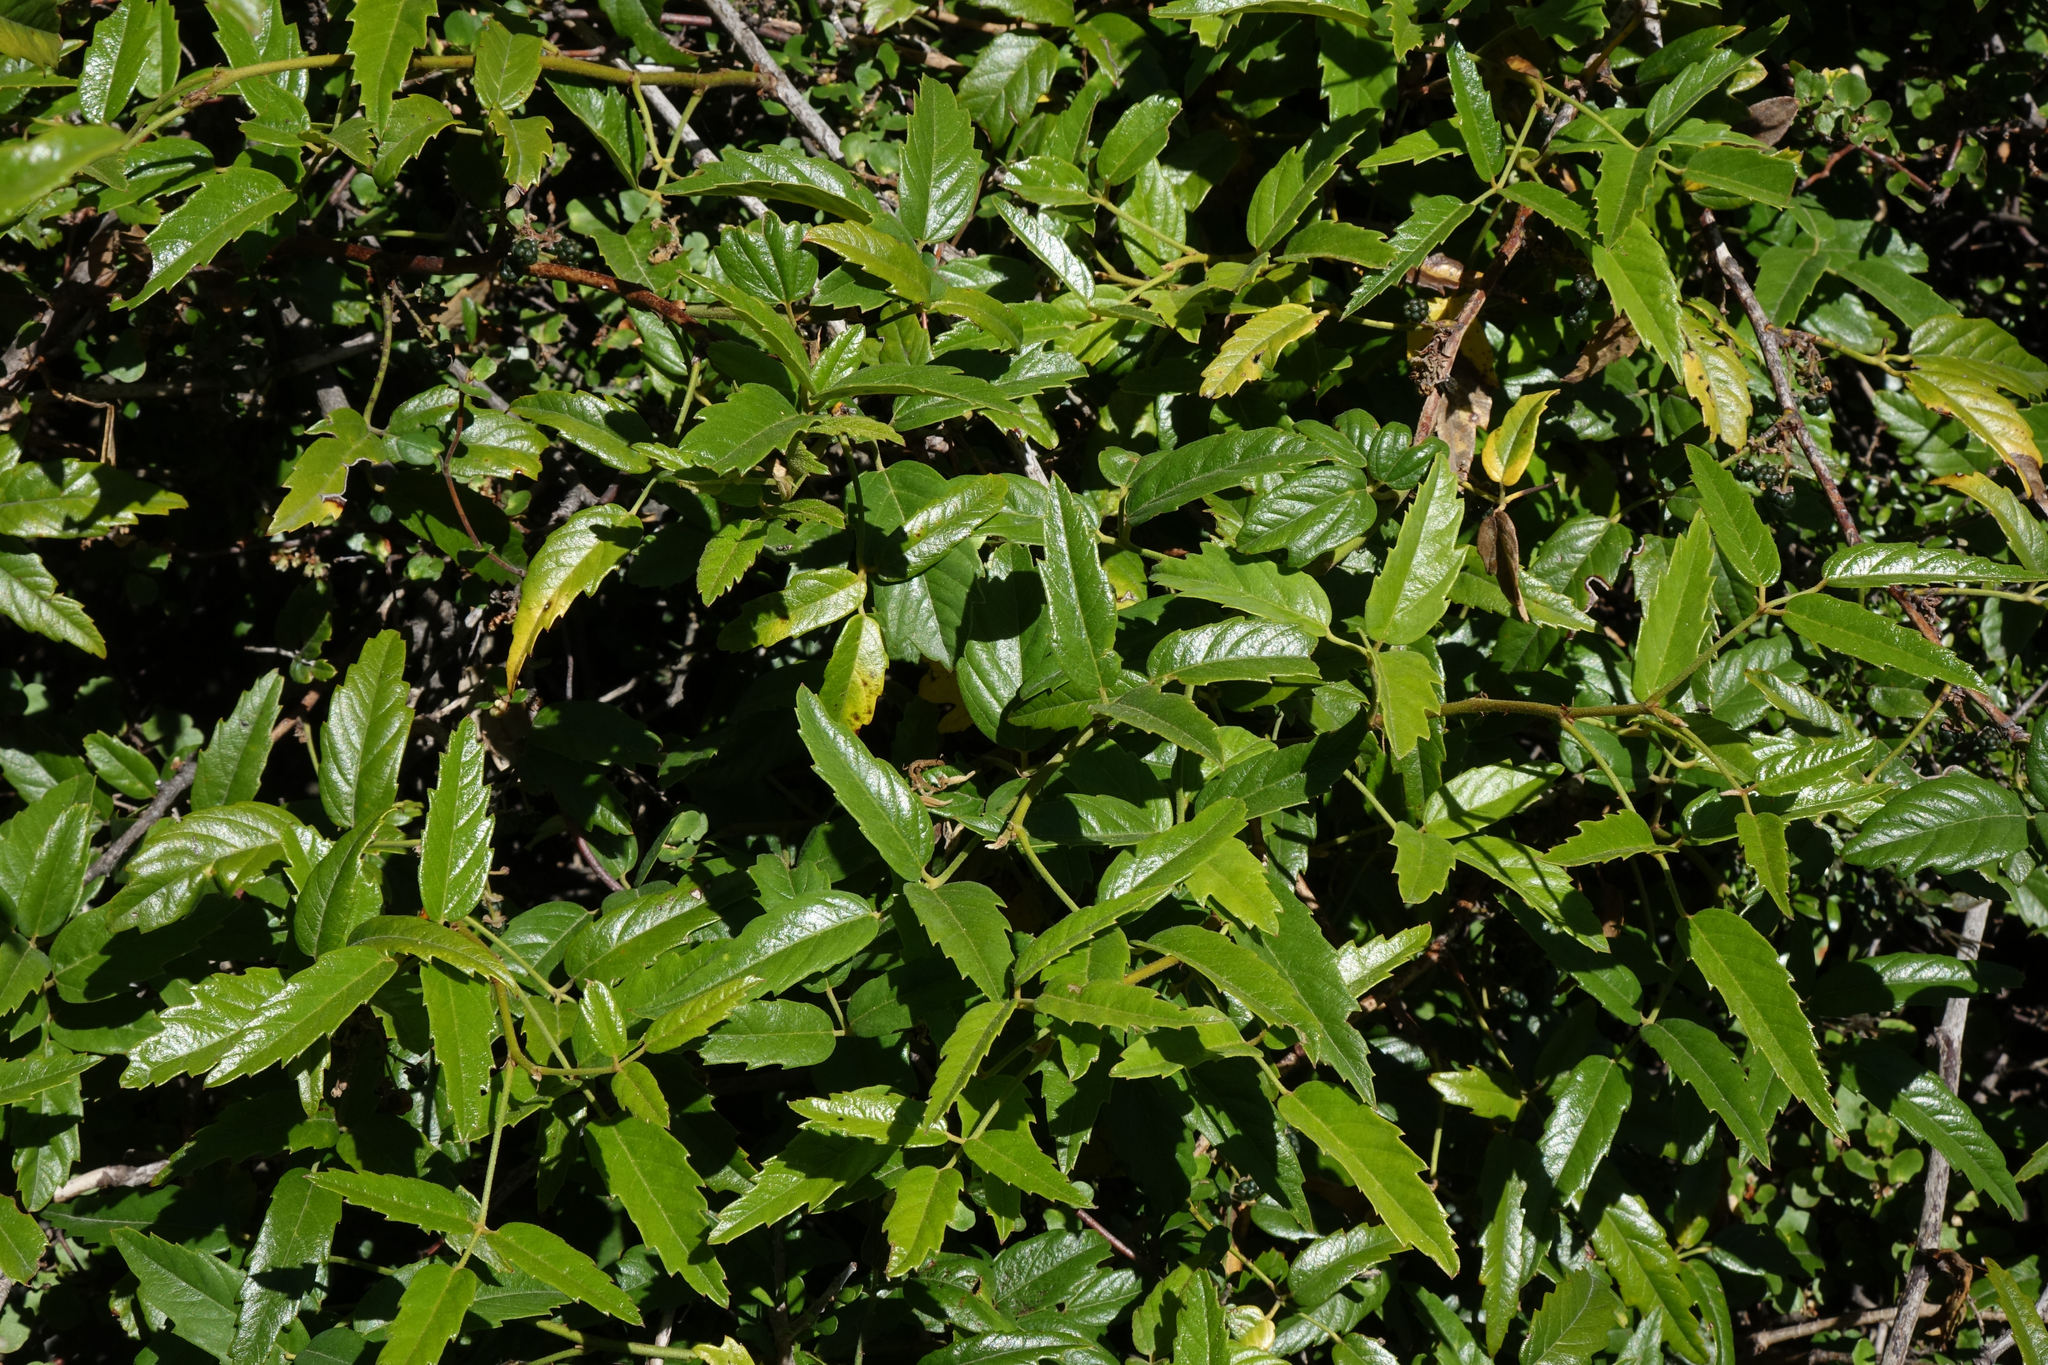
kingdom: Plantae
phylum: Tracheophyta
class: Magnoliopsida
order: Rosales
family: Rosaceae
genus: Rubus
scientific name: Rubus schmidelioides
